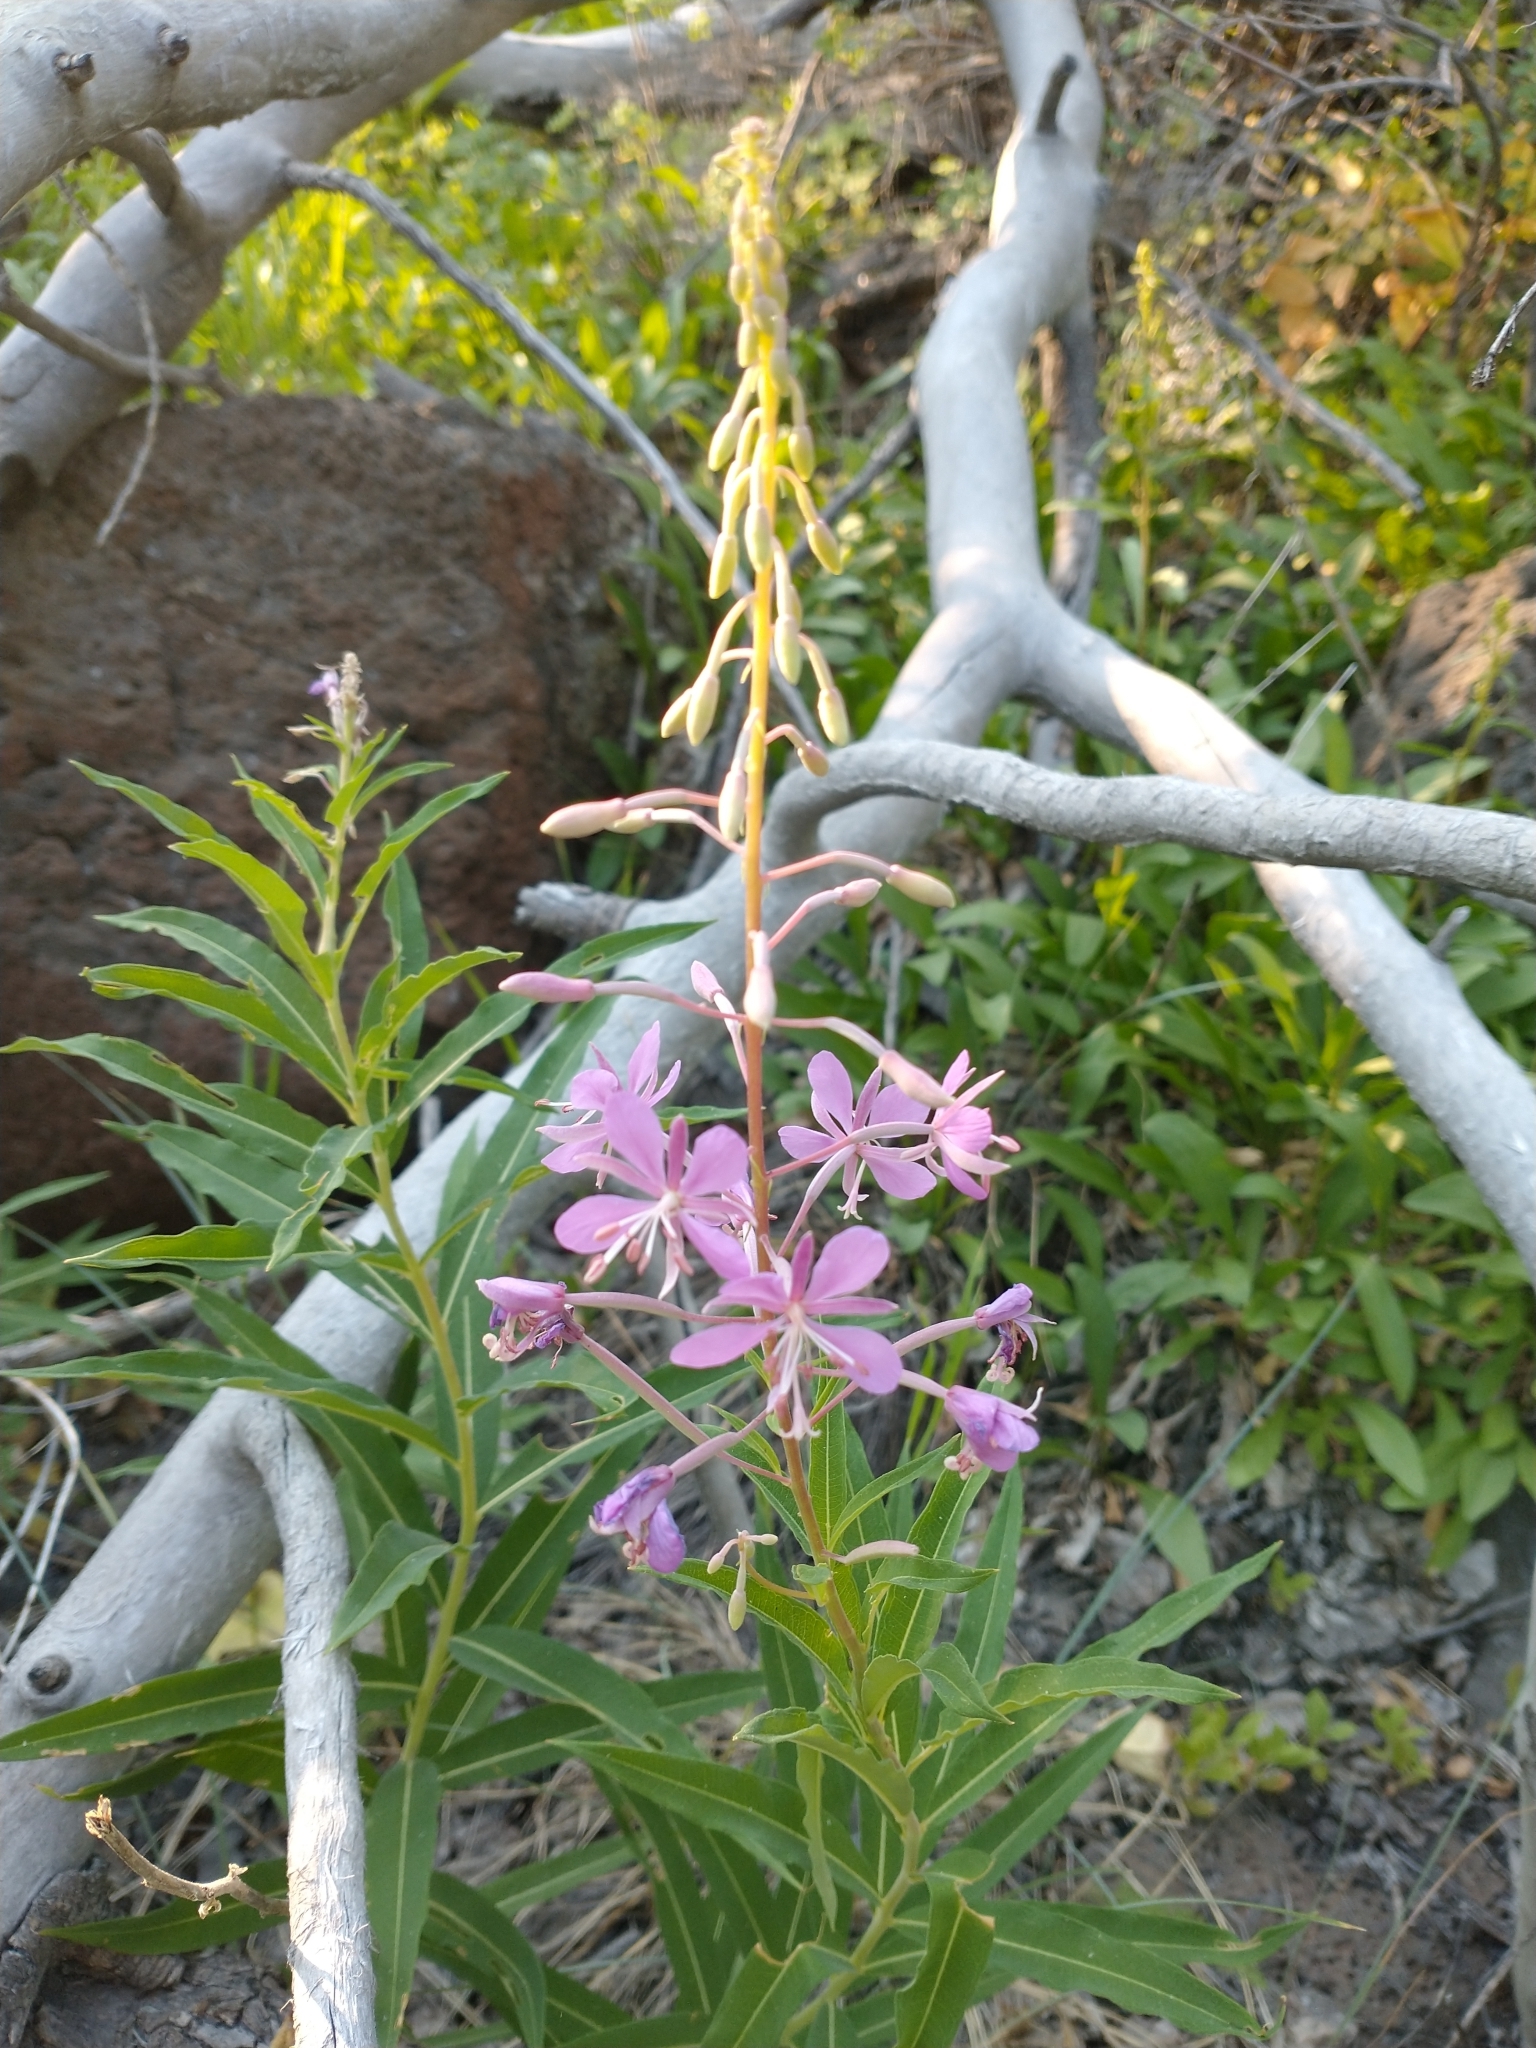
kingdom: Plantae
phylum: Tracheophyta
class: Magnoliopsida
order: Myrtales
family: Onagraceae
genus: Chamaenerion
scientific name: Chamaenerion angustifolium
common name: Fireweed
